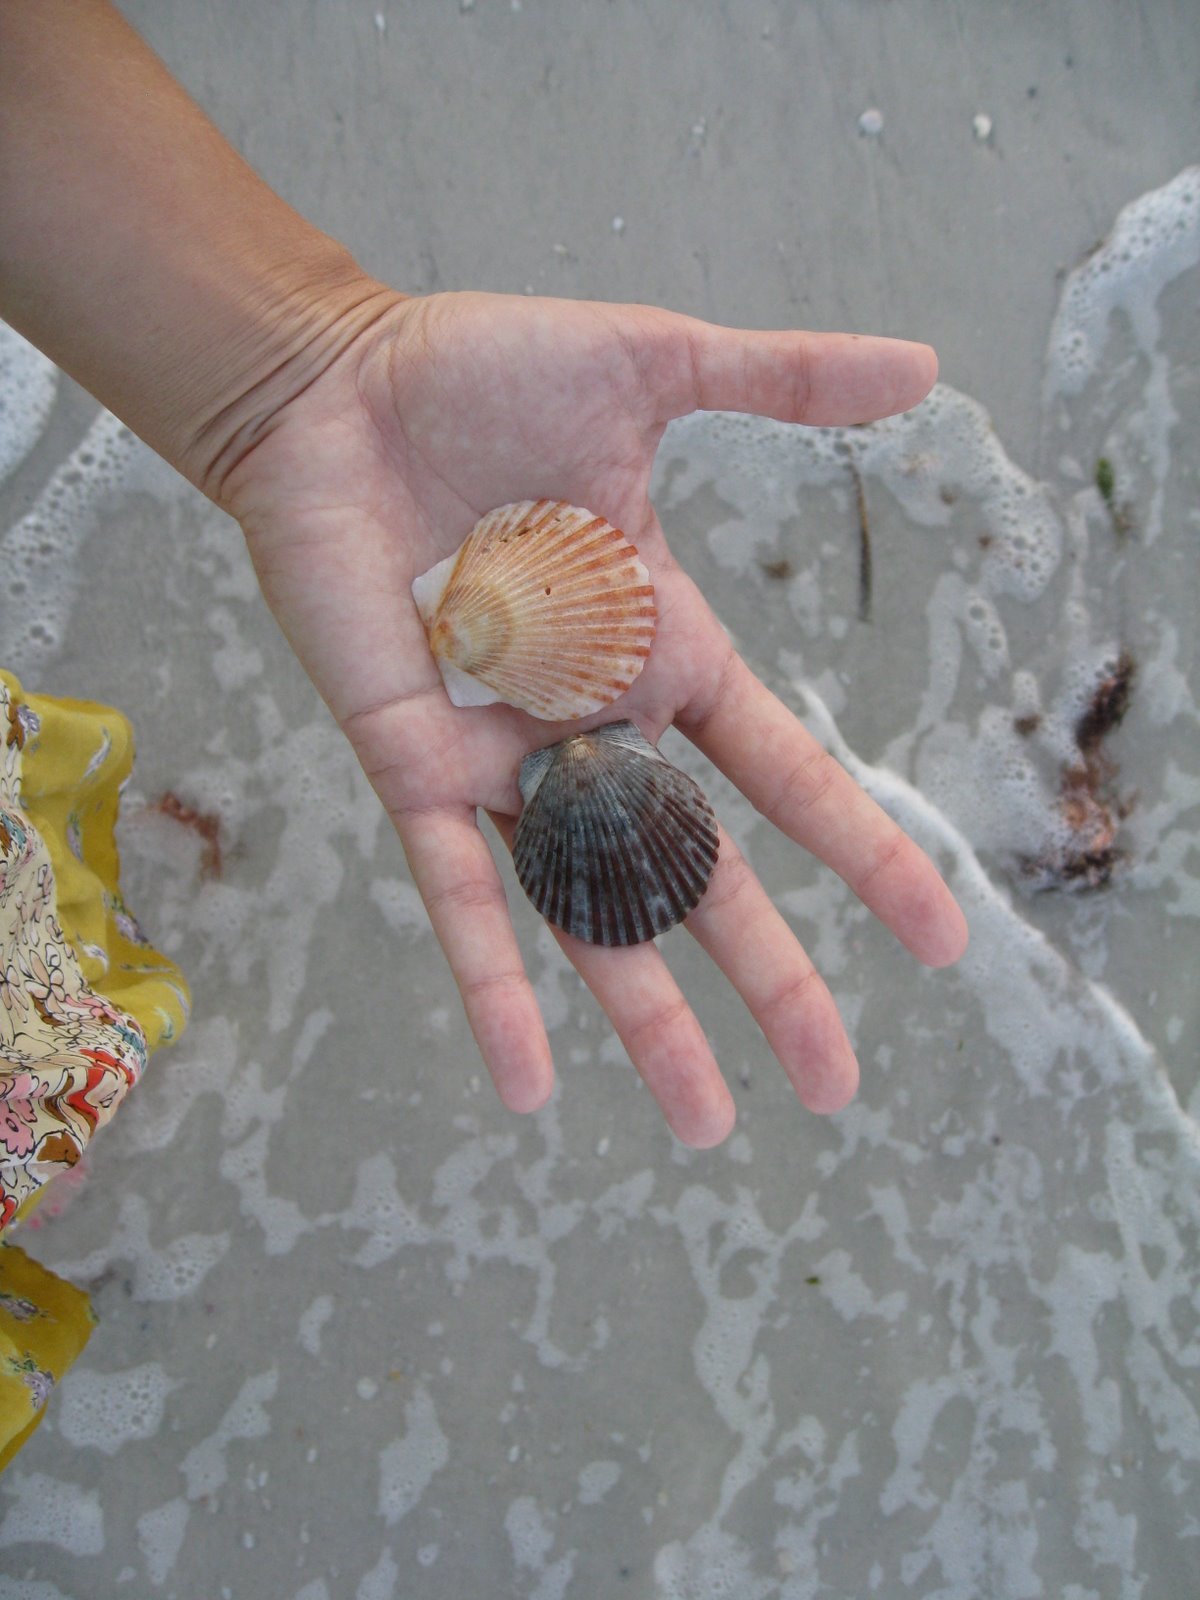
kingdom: Animalia
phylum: Mollusca
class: Bivalvia
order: Pectinida
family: Pectinidae
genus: Argopecten
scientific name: Argopecten irradians
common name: Atlantic bay scallop
